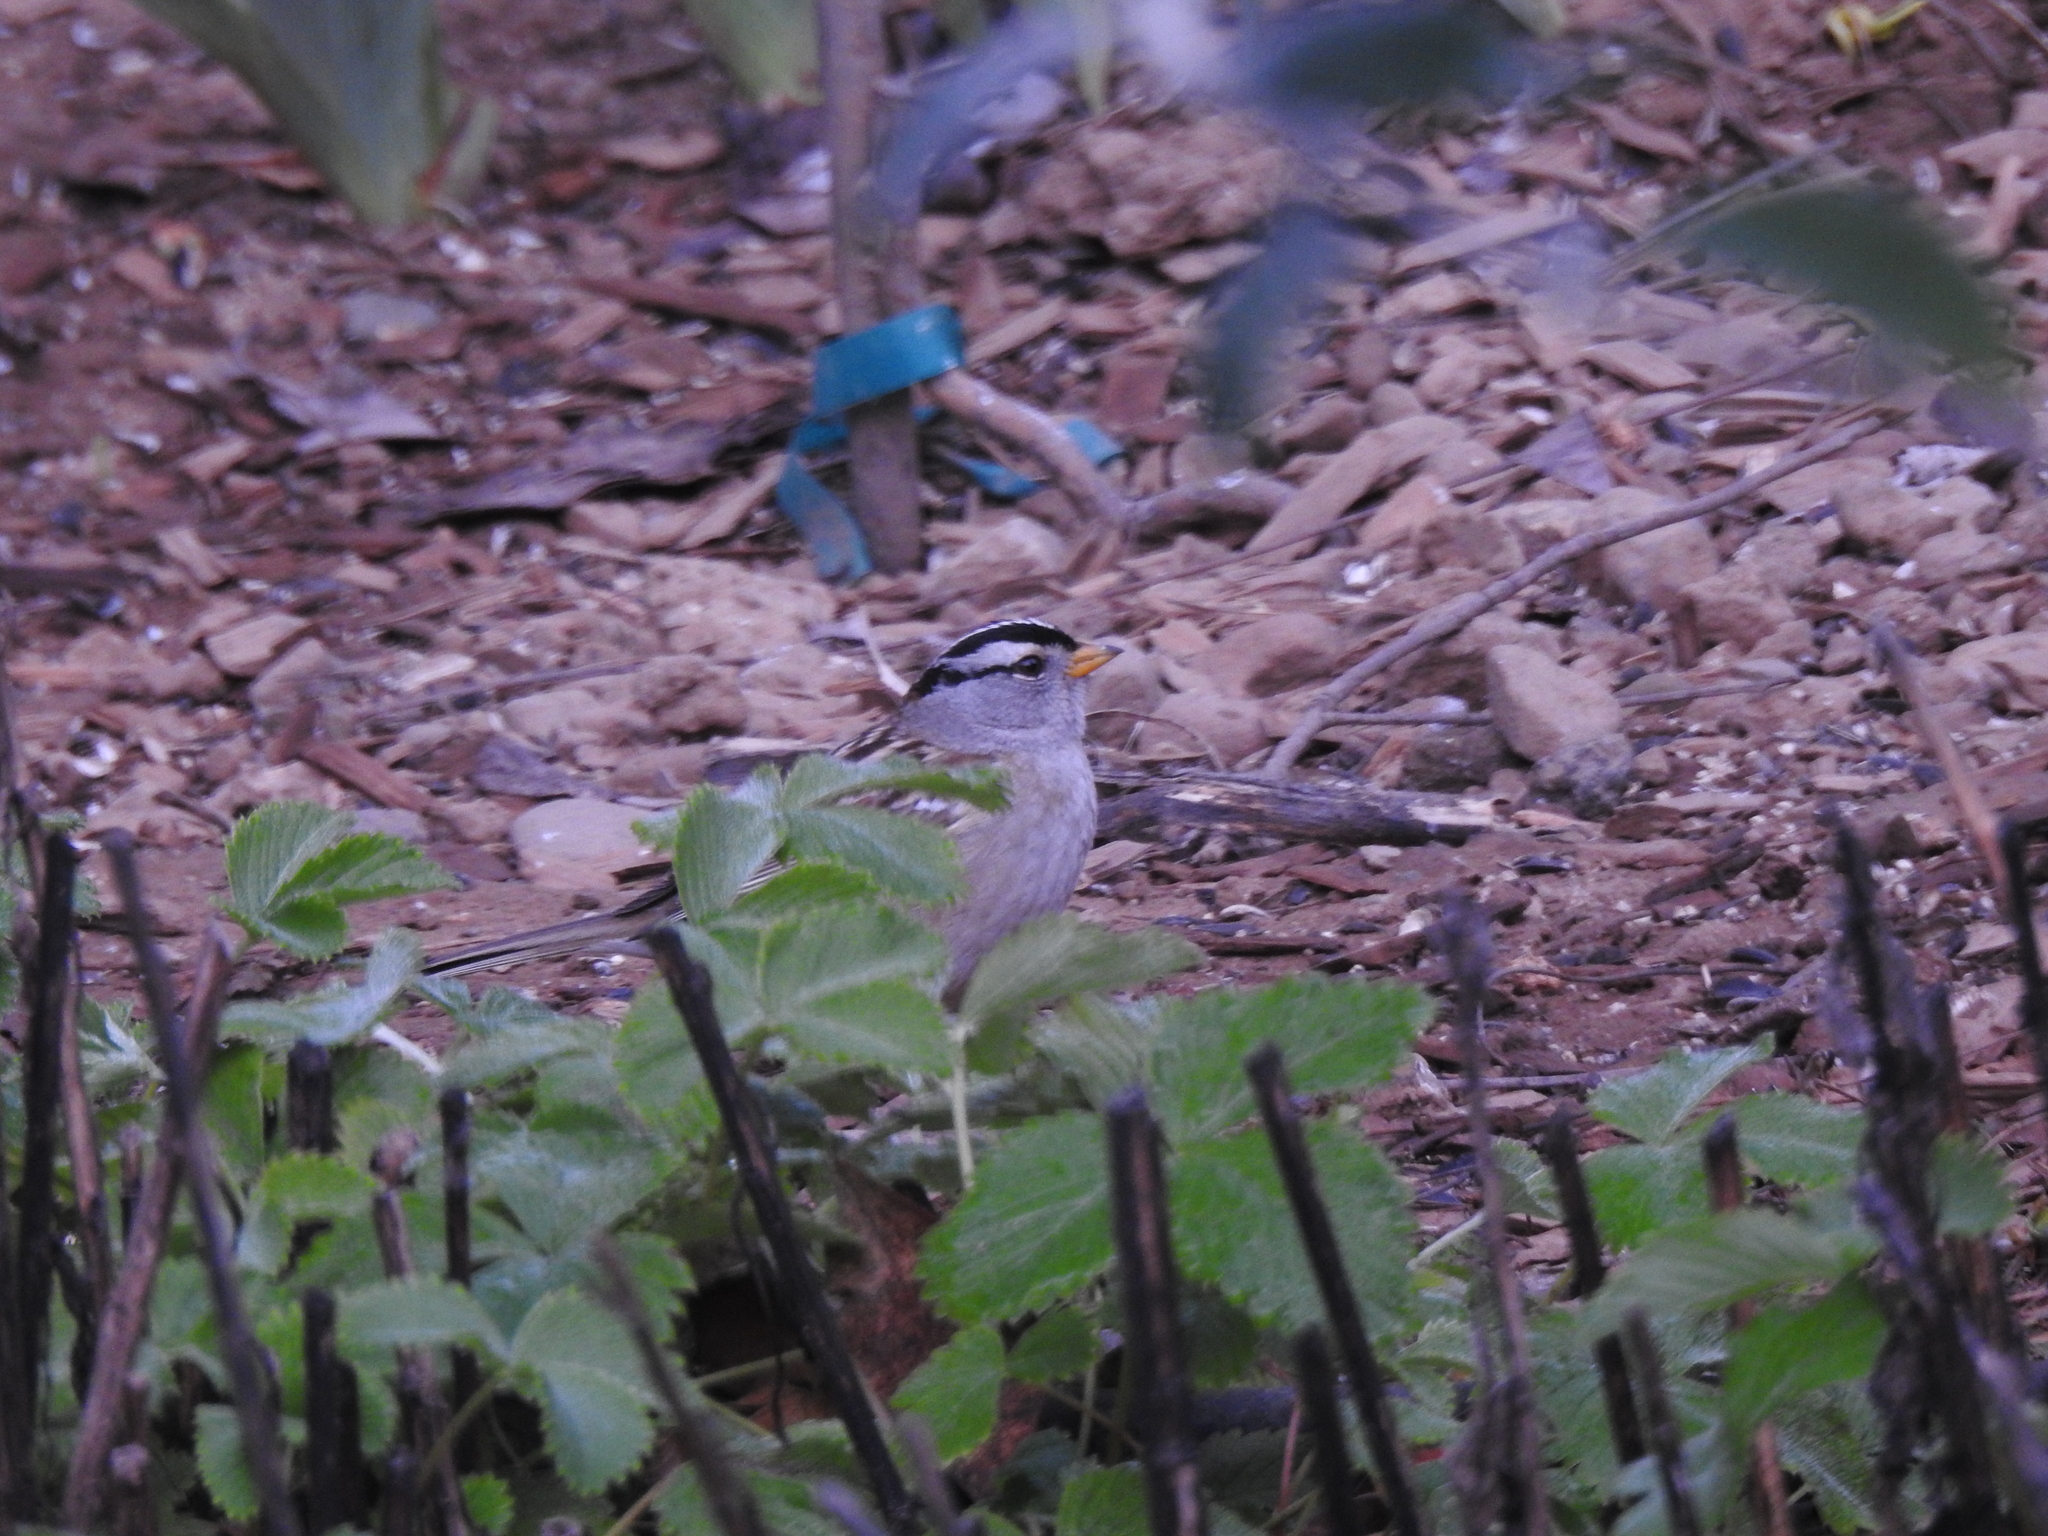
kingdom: Animalia
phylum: Chordata
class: Aves
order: Passeriformes
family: Passerellidae
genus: Zonotrichia
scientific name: Zonotrichia leucophrys
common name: White-crowned sparrow
